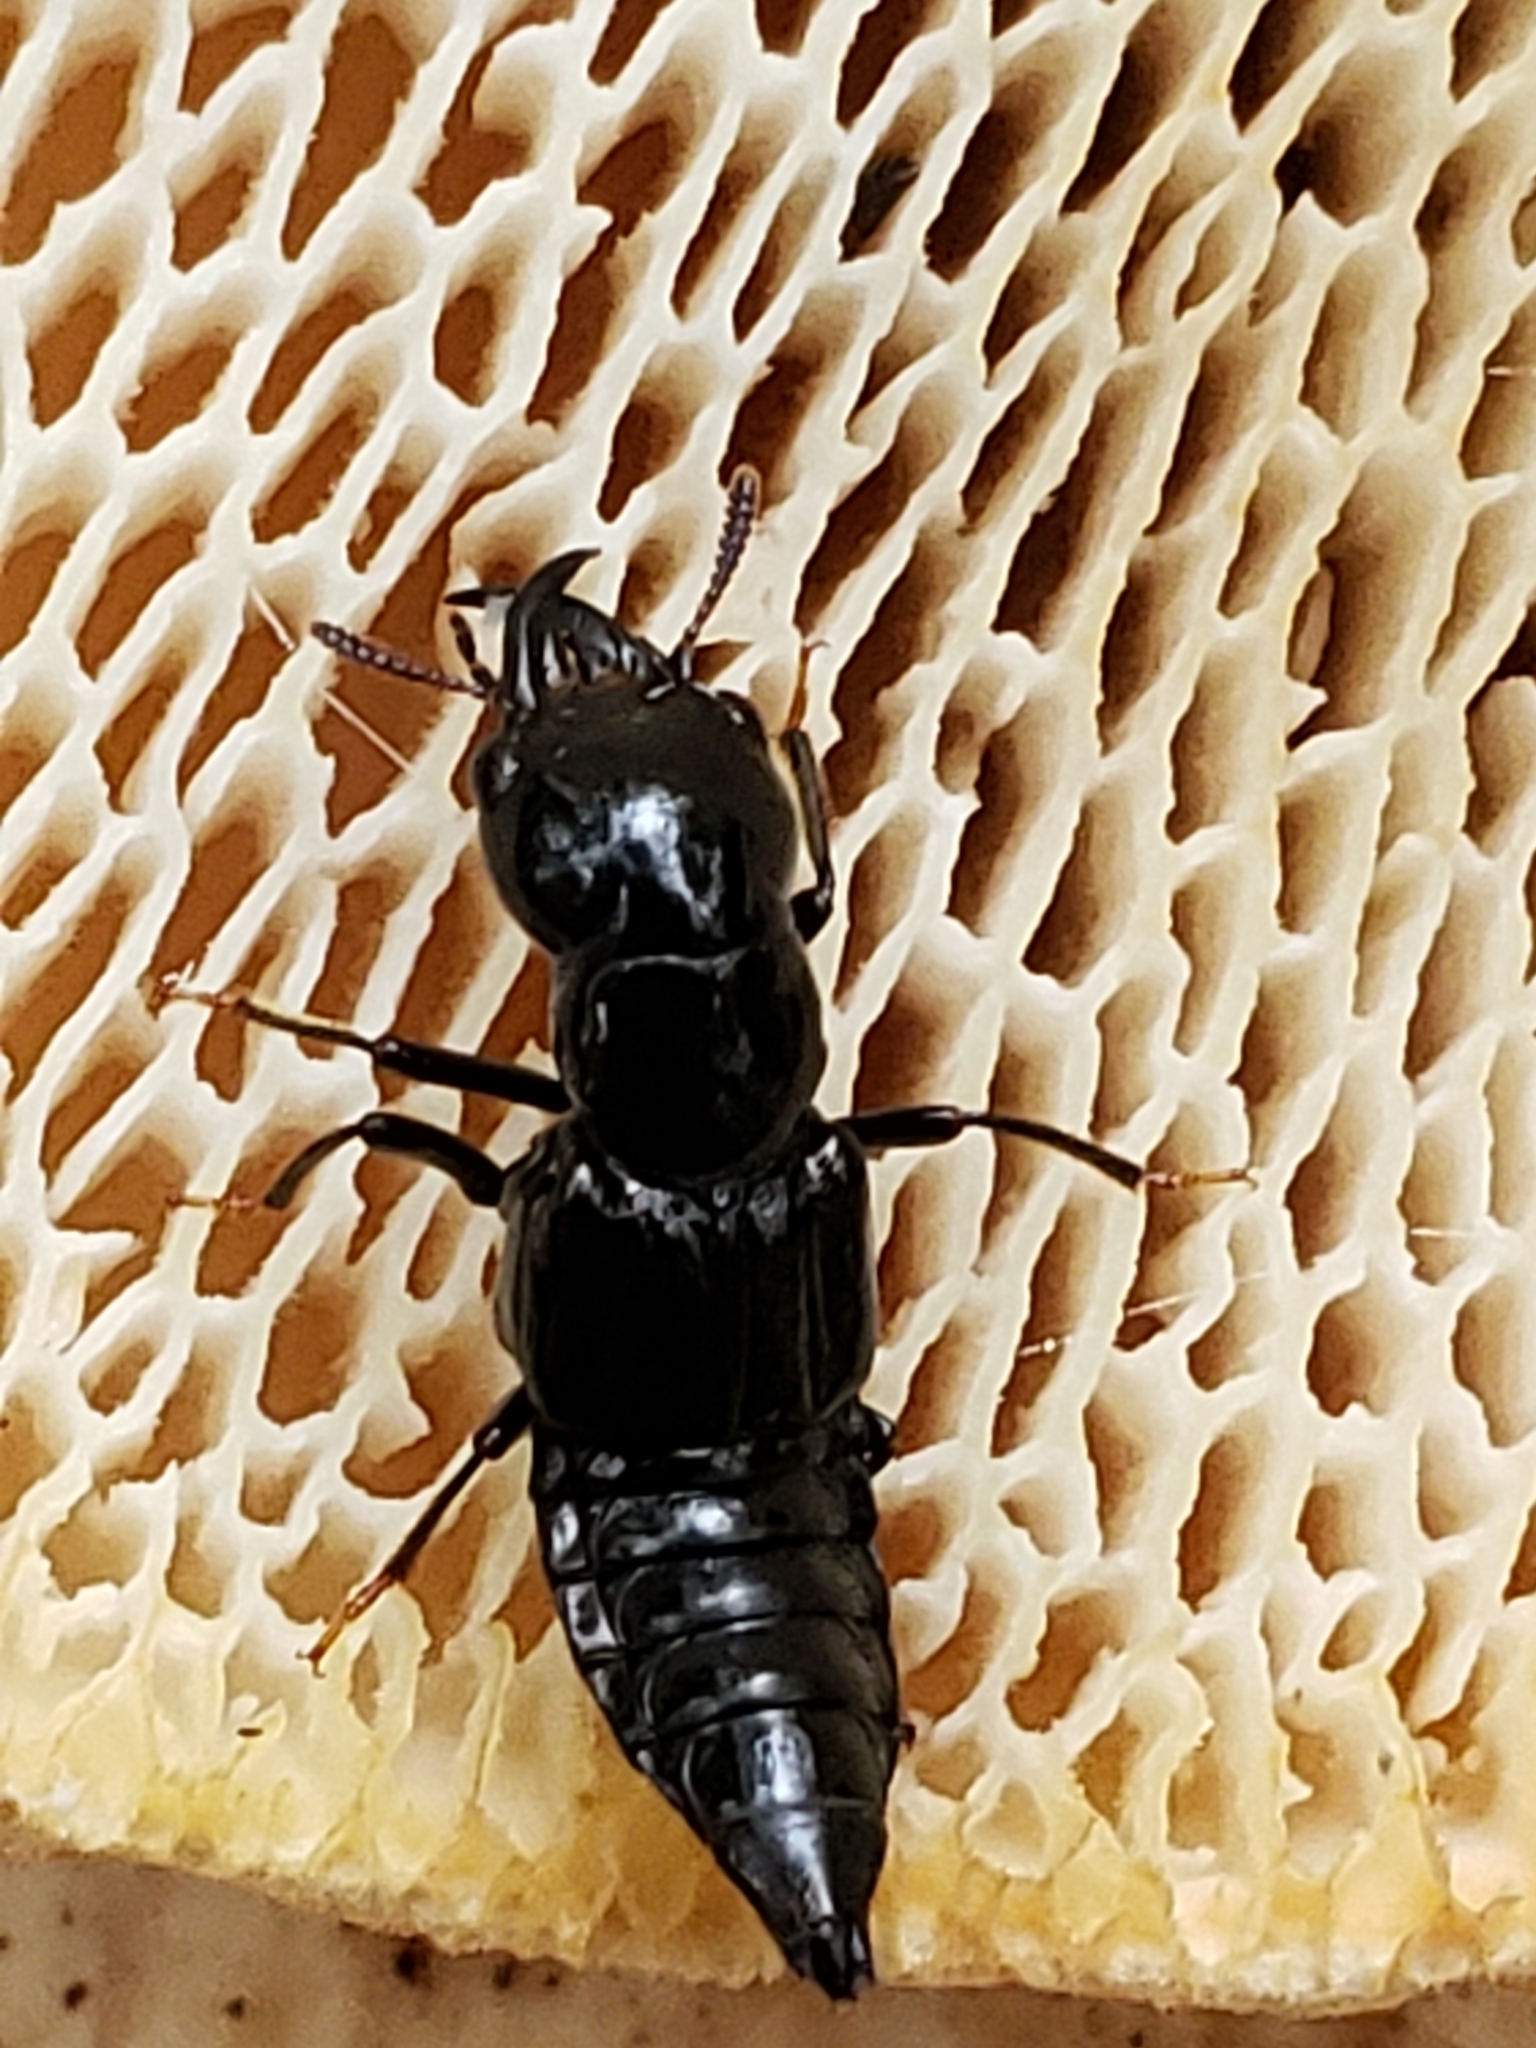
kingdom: Animalia
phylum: Arthropoda
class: Insecta
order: Coleoptera
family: Staphylinidae
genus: Oxyporus
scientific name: Oxyporus stygicus
